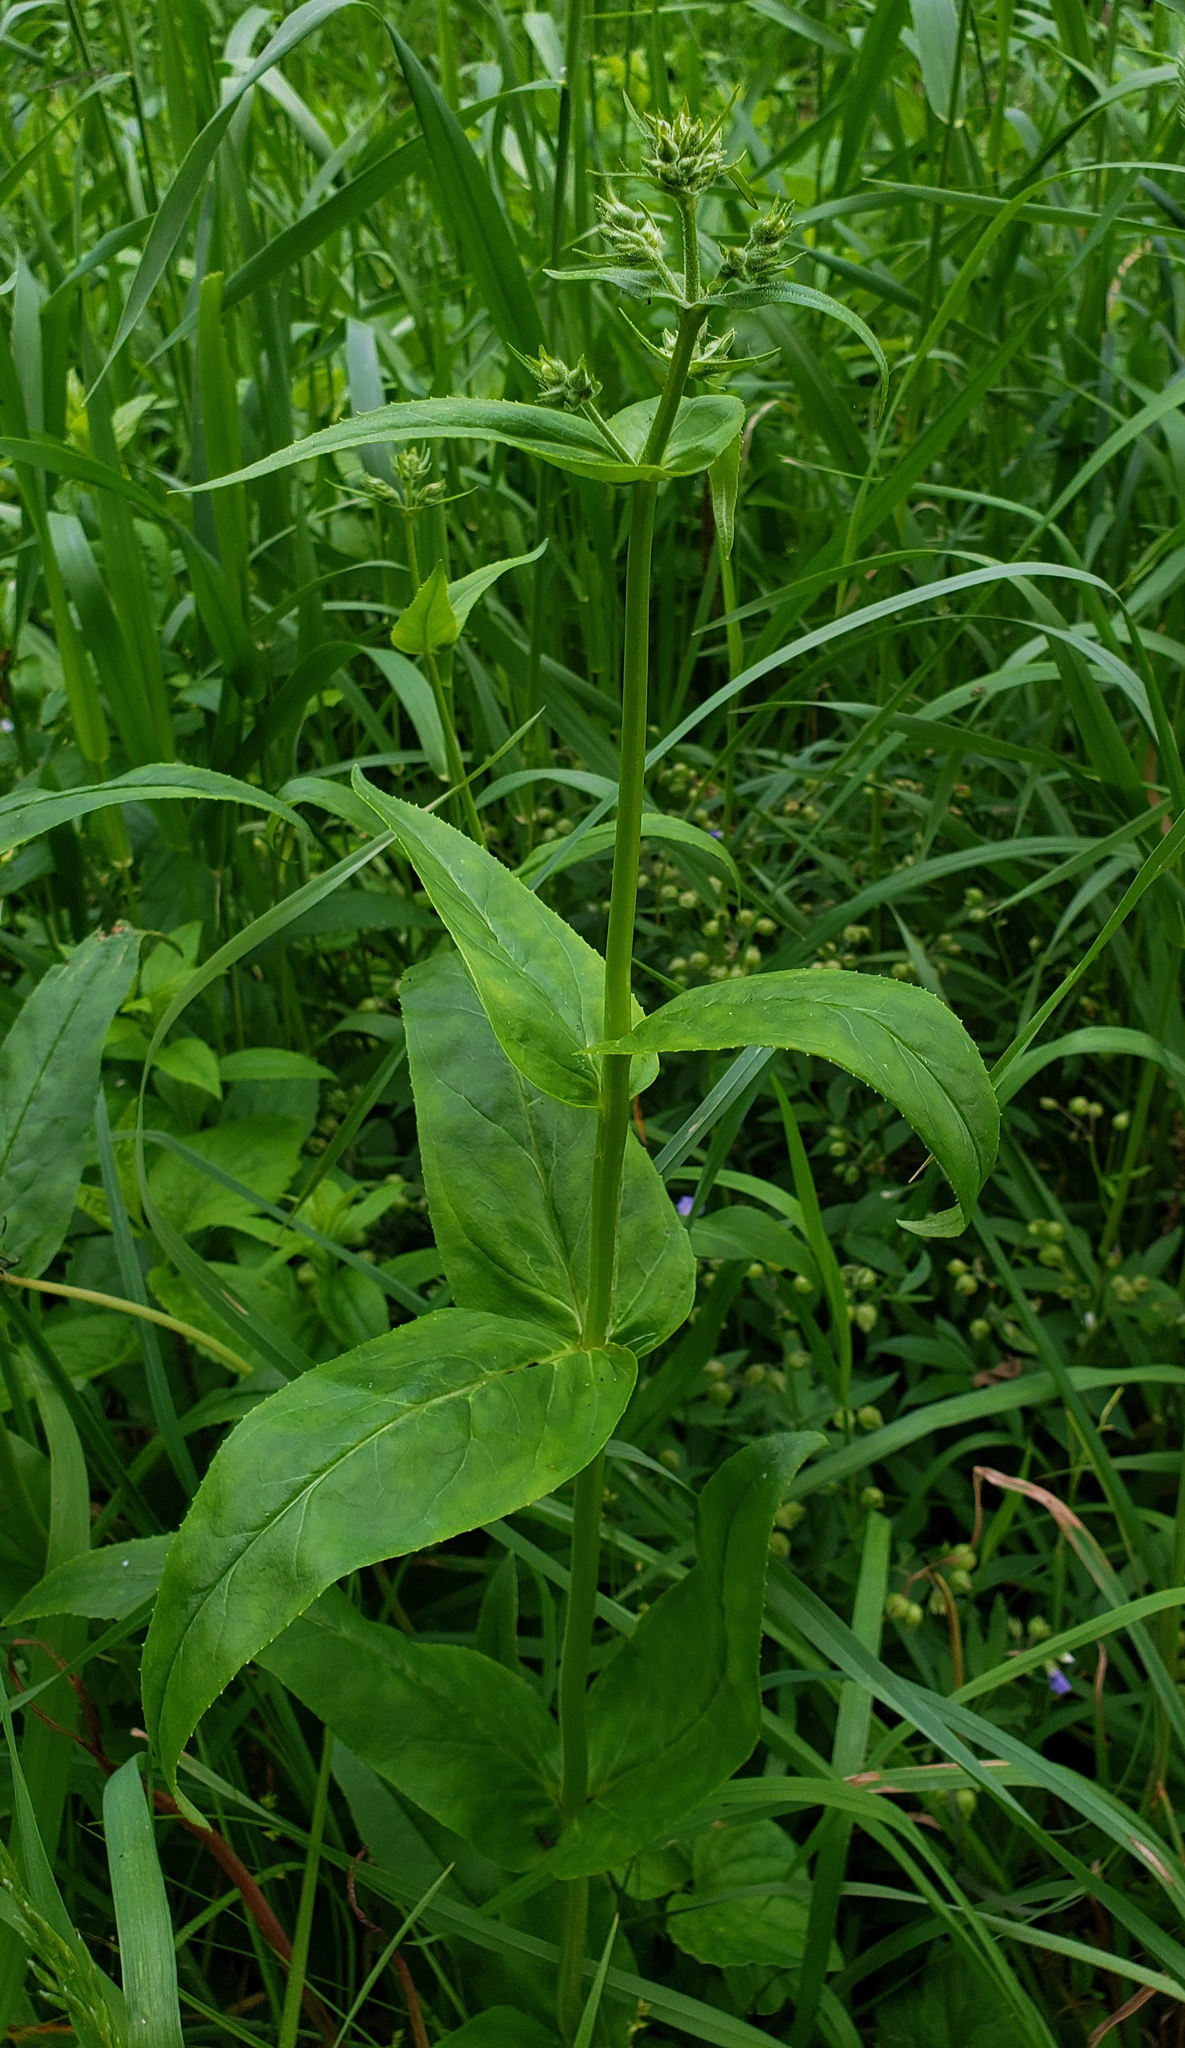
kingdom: Plantae
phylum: Tracheophyta
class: Magnoliopsida
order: Lamiales
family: Plantaginaceae
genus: Penstemon
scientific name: Penstemon digitalis
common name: Foxglove beardtongue
